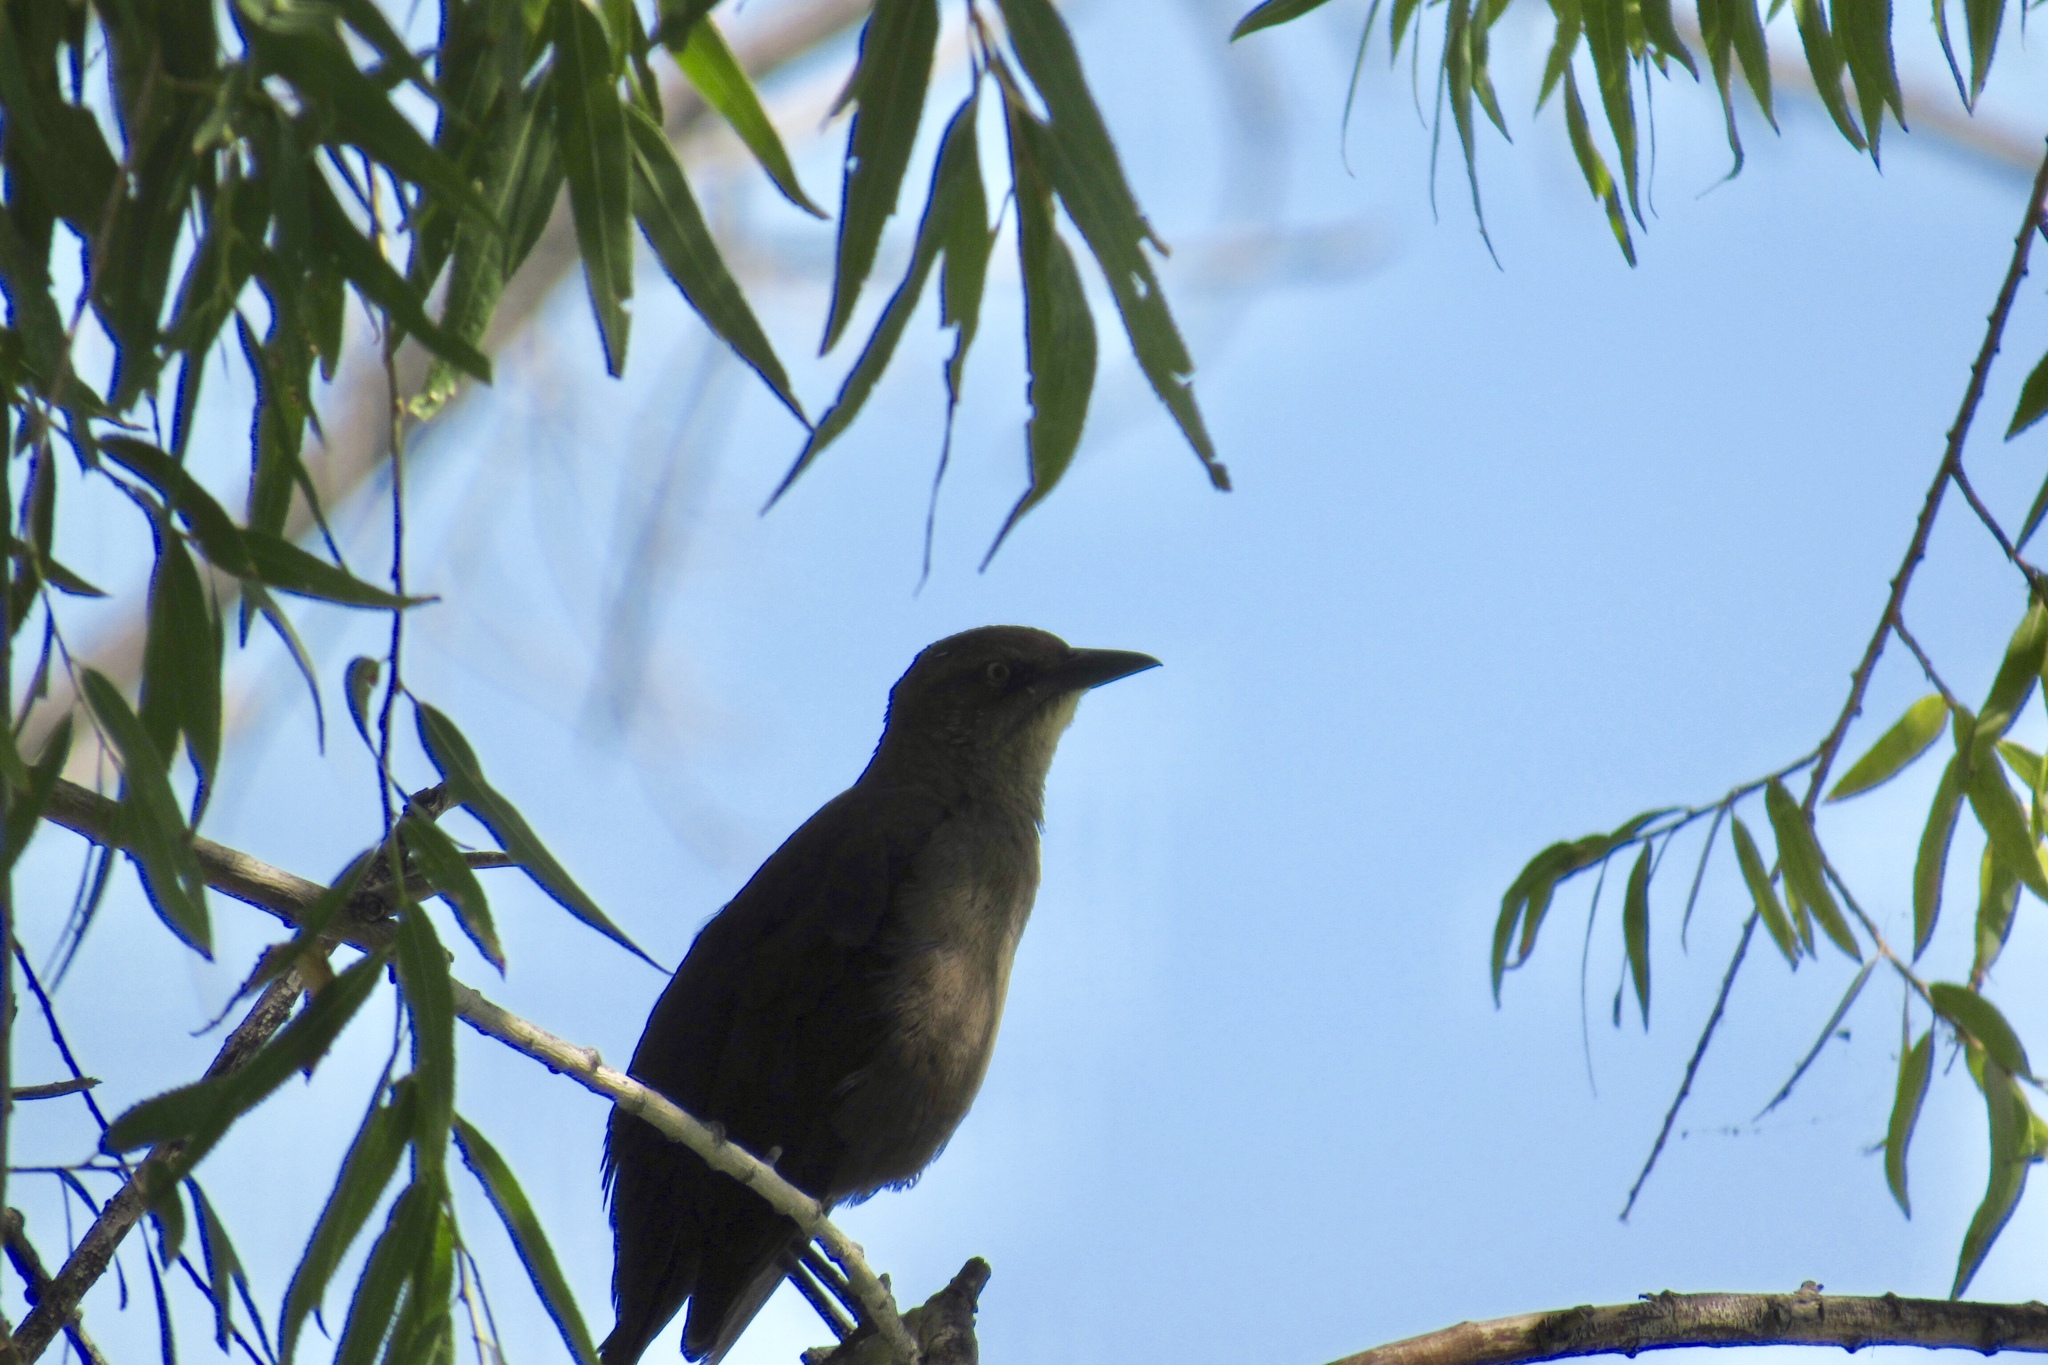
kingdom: Animalia
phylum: Chordata
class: Aves
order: Passeriformes
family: Icteridae
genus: Quiscalus
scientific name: Quiscalus mexicanus
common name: Great-tailed grackle
